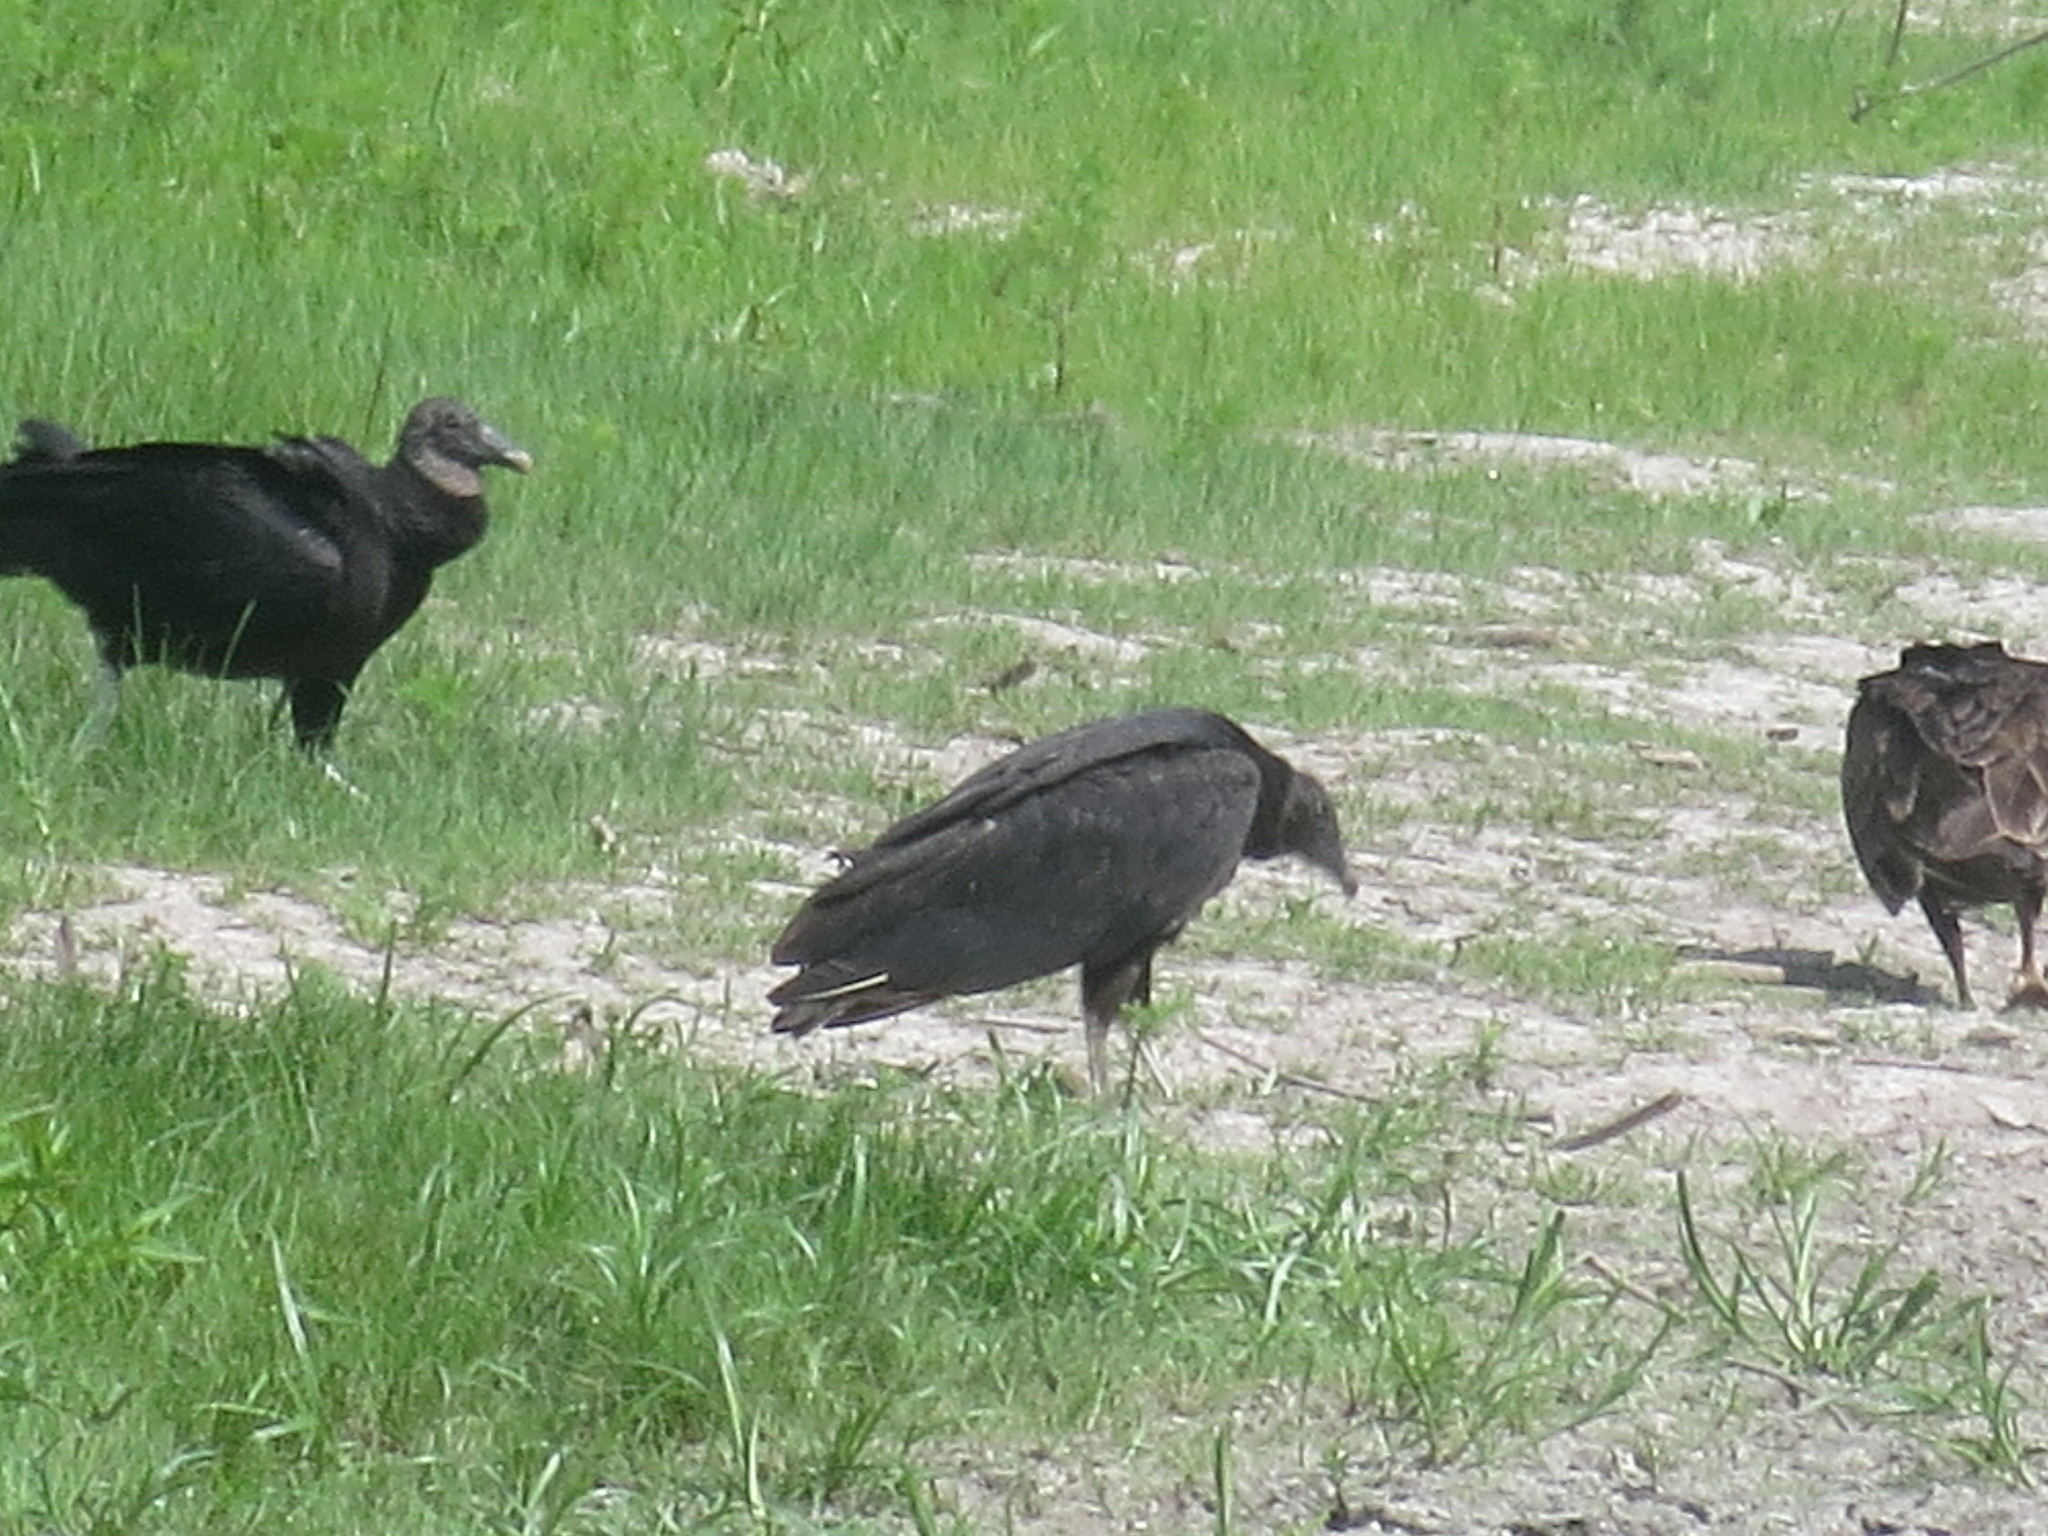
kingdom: Animalia
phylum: Chordata
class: Aves
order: Accipitriformes
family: Cathartidae
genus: Coragyps
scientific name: Coragyps atratus
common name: Black vulture
